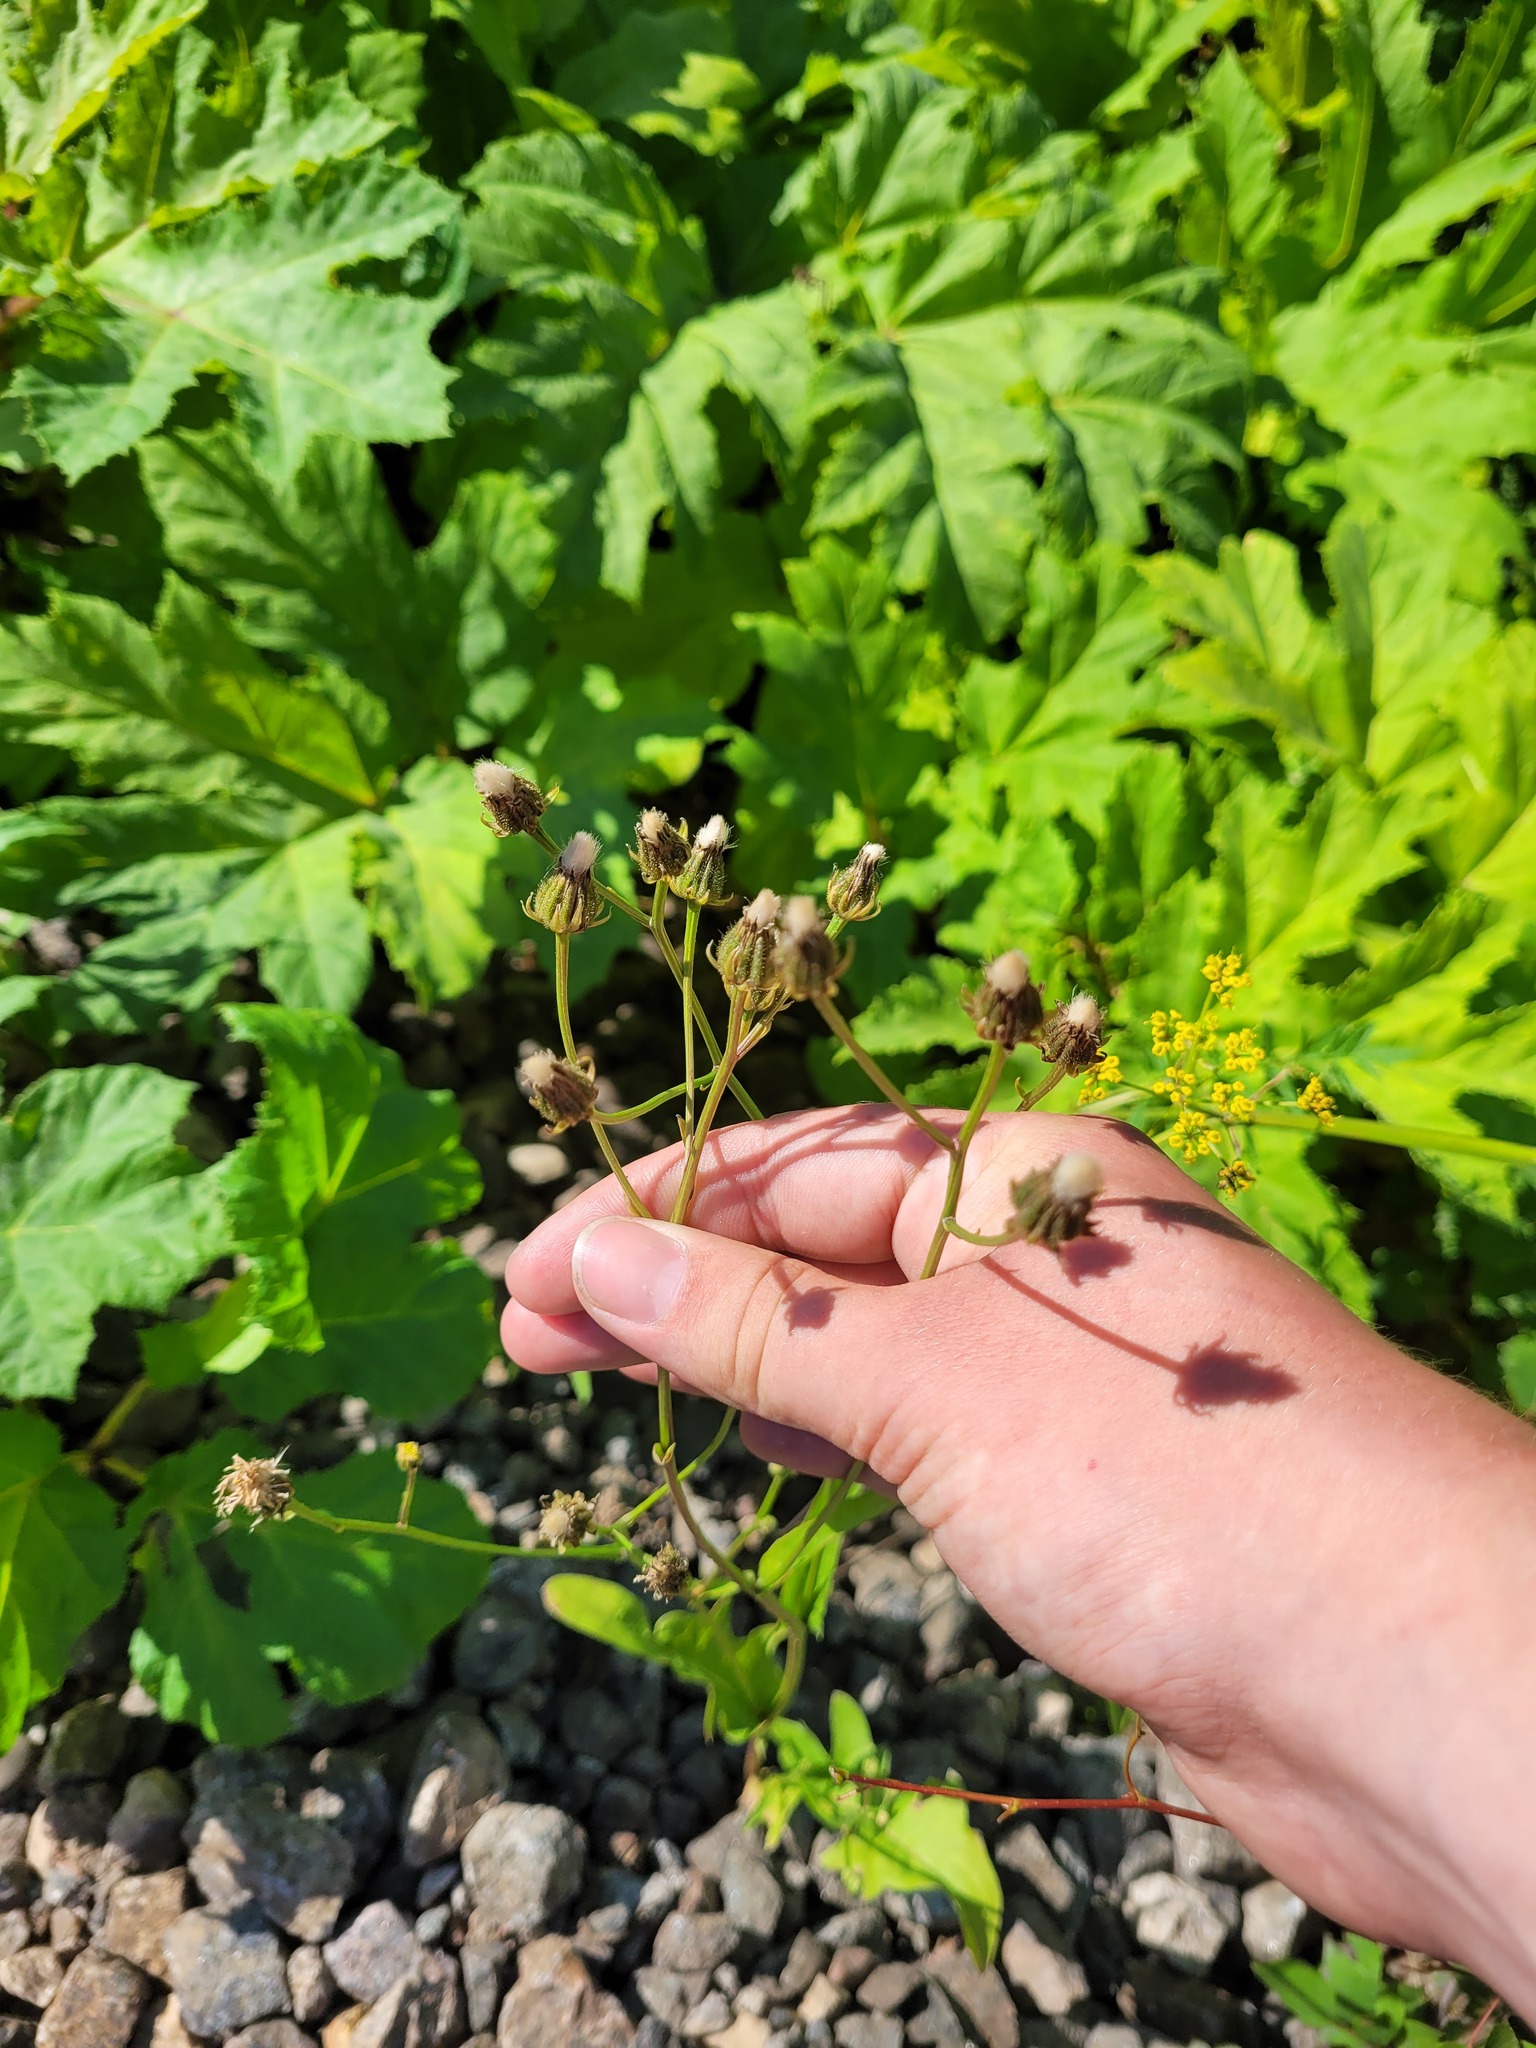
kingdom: Plantae
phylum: Tracheophyta
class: Magnoliopsida
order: Asterales
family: Asteraceae
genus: Crepis
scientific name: Crepis biennis
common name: Rough hawk's-beard
